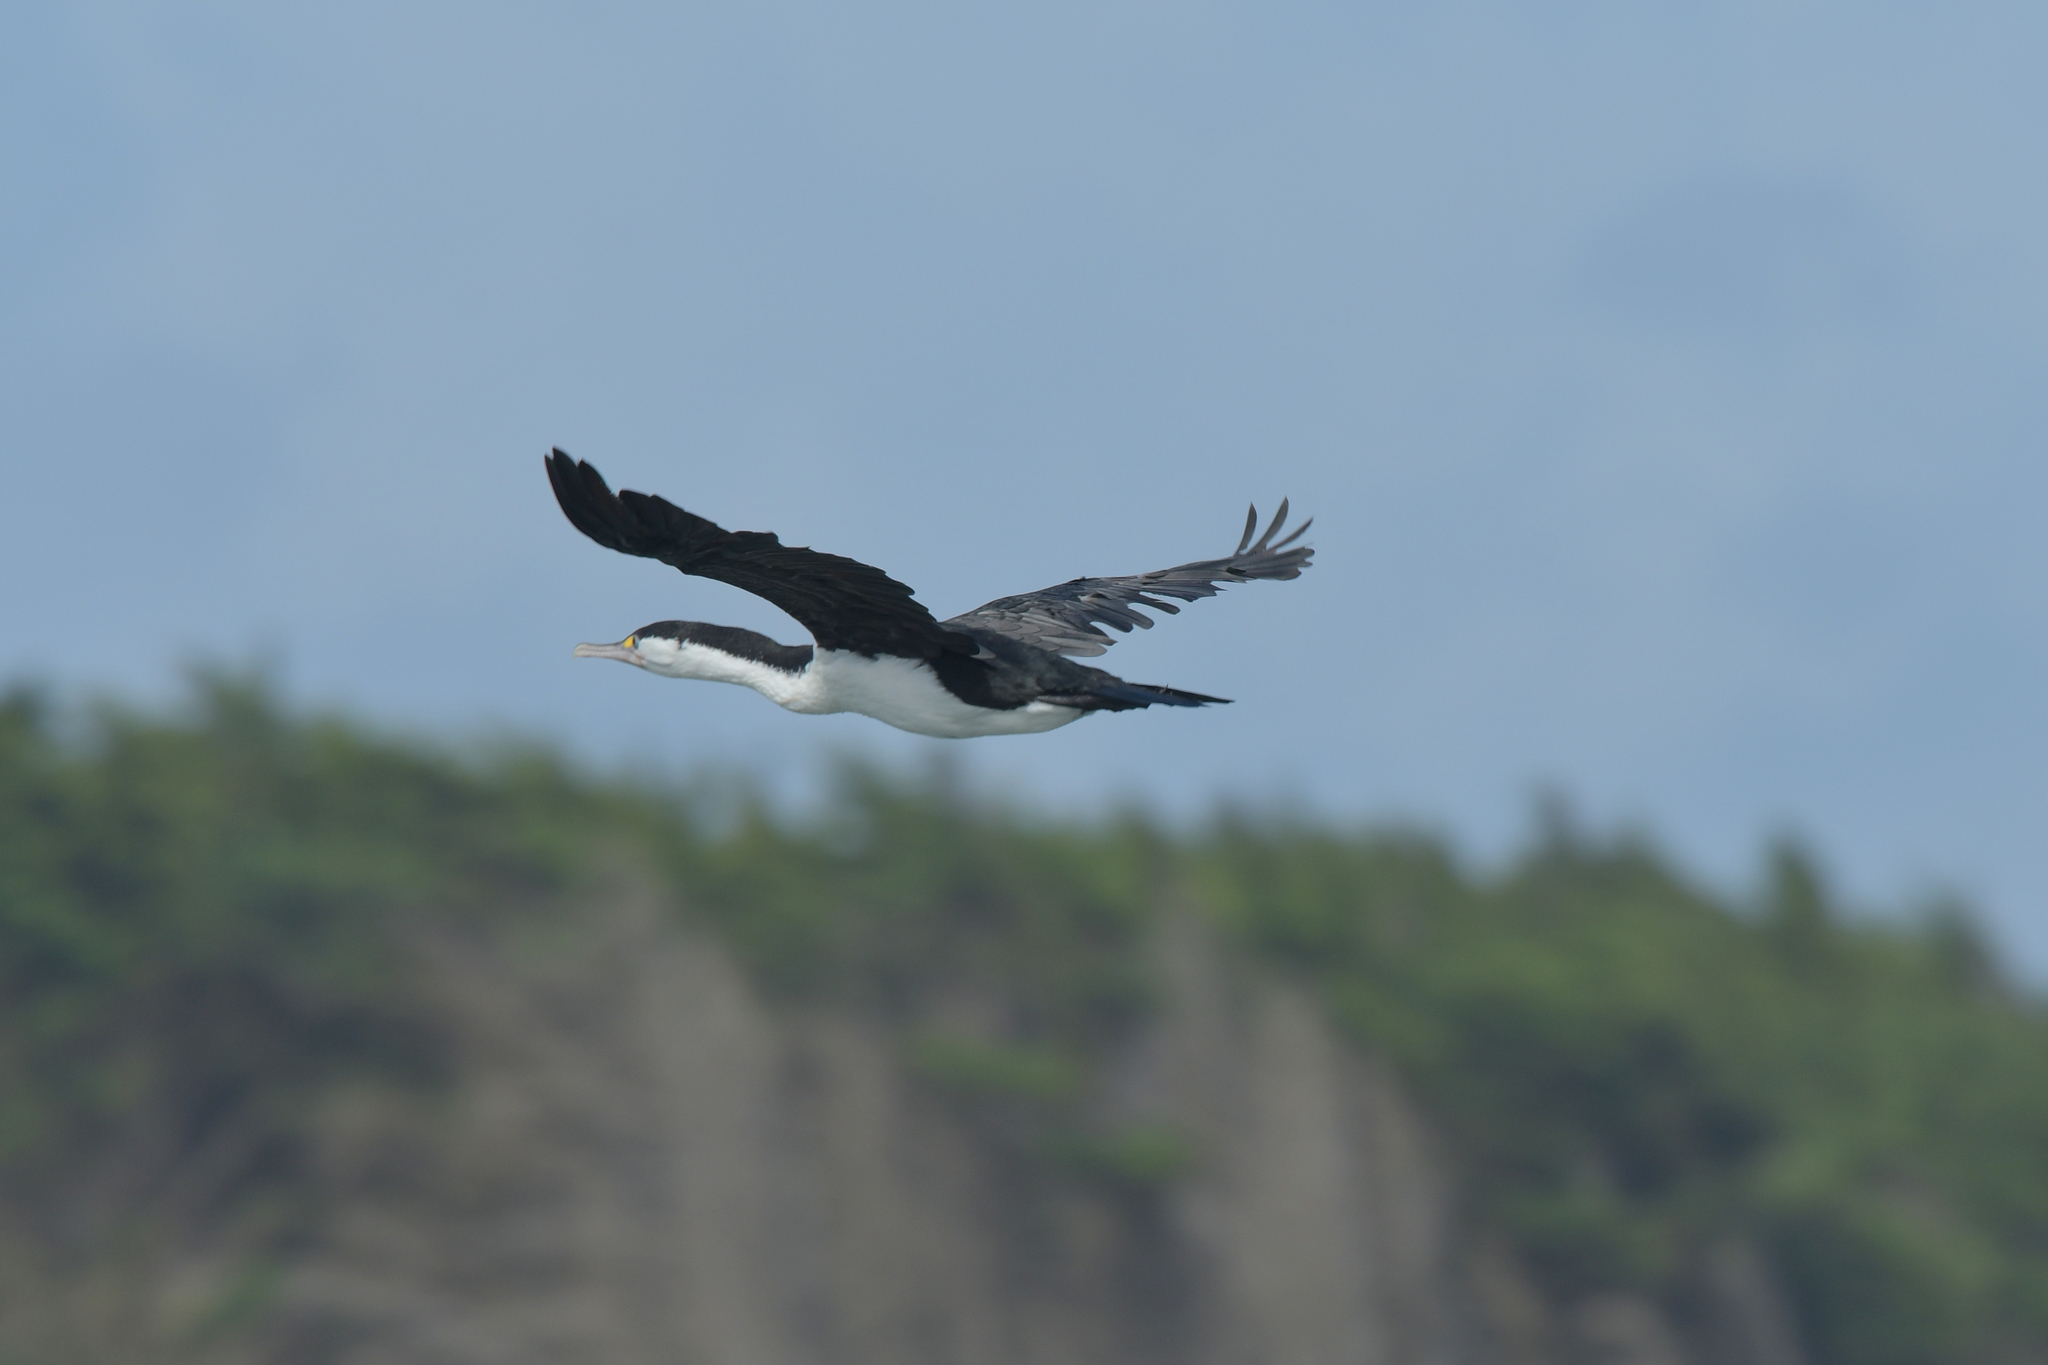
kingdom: Animalia
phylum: Chordata
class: Aves
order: Suliformes
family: Phalacrocoracidae
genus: Phalacrocorax
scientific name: Phalacrocorax varius
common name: Pied cormorant
